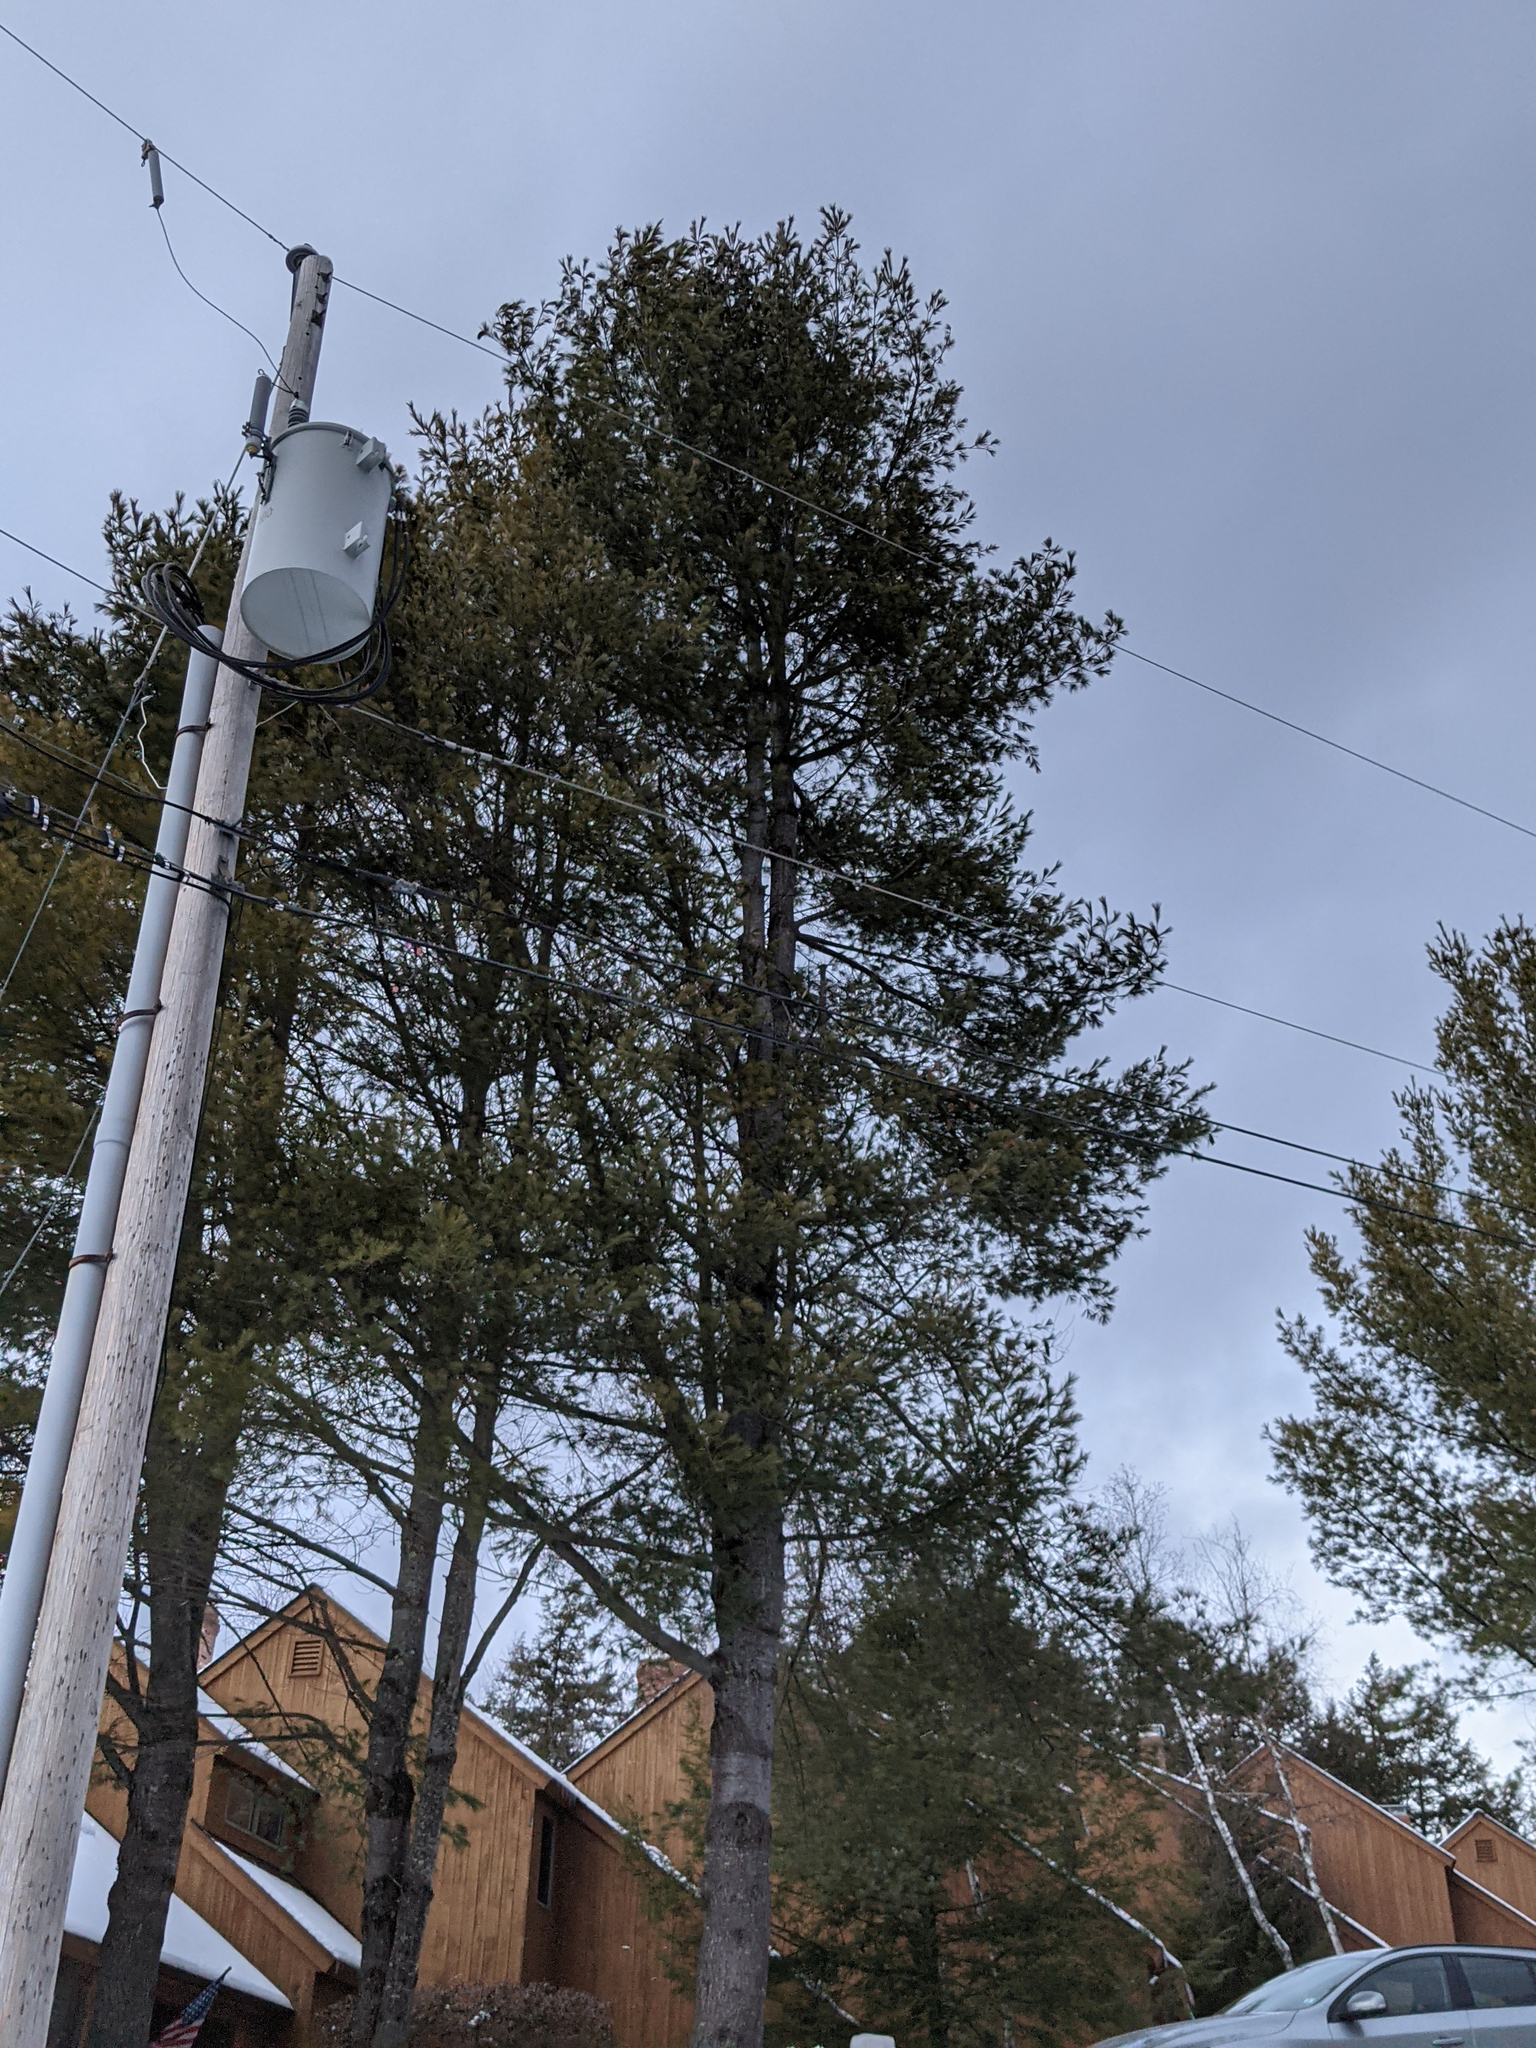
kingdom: Plantae
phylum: Tracheophyta
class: Pinopsida
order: Pinales
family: Pinaceae
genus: Pinus
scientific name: Pinus strobus
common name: Weymouth pine
